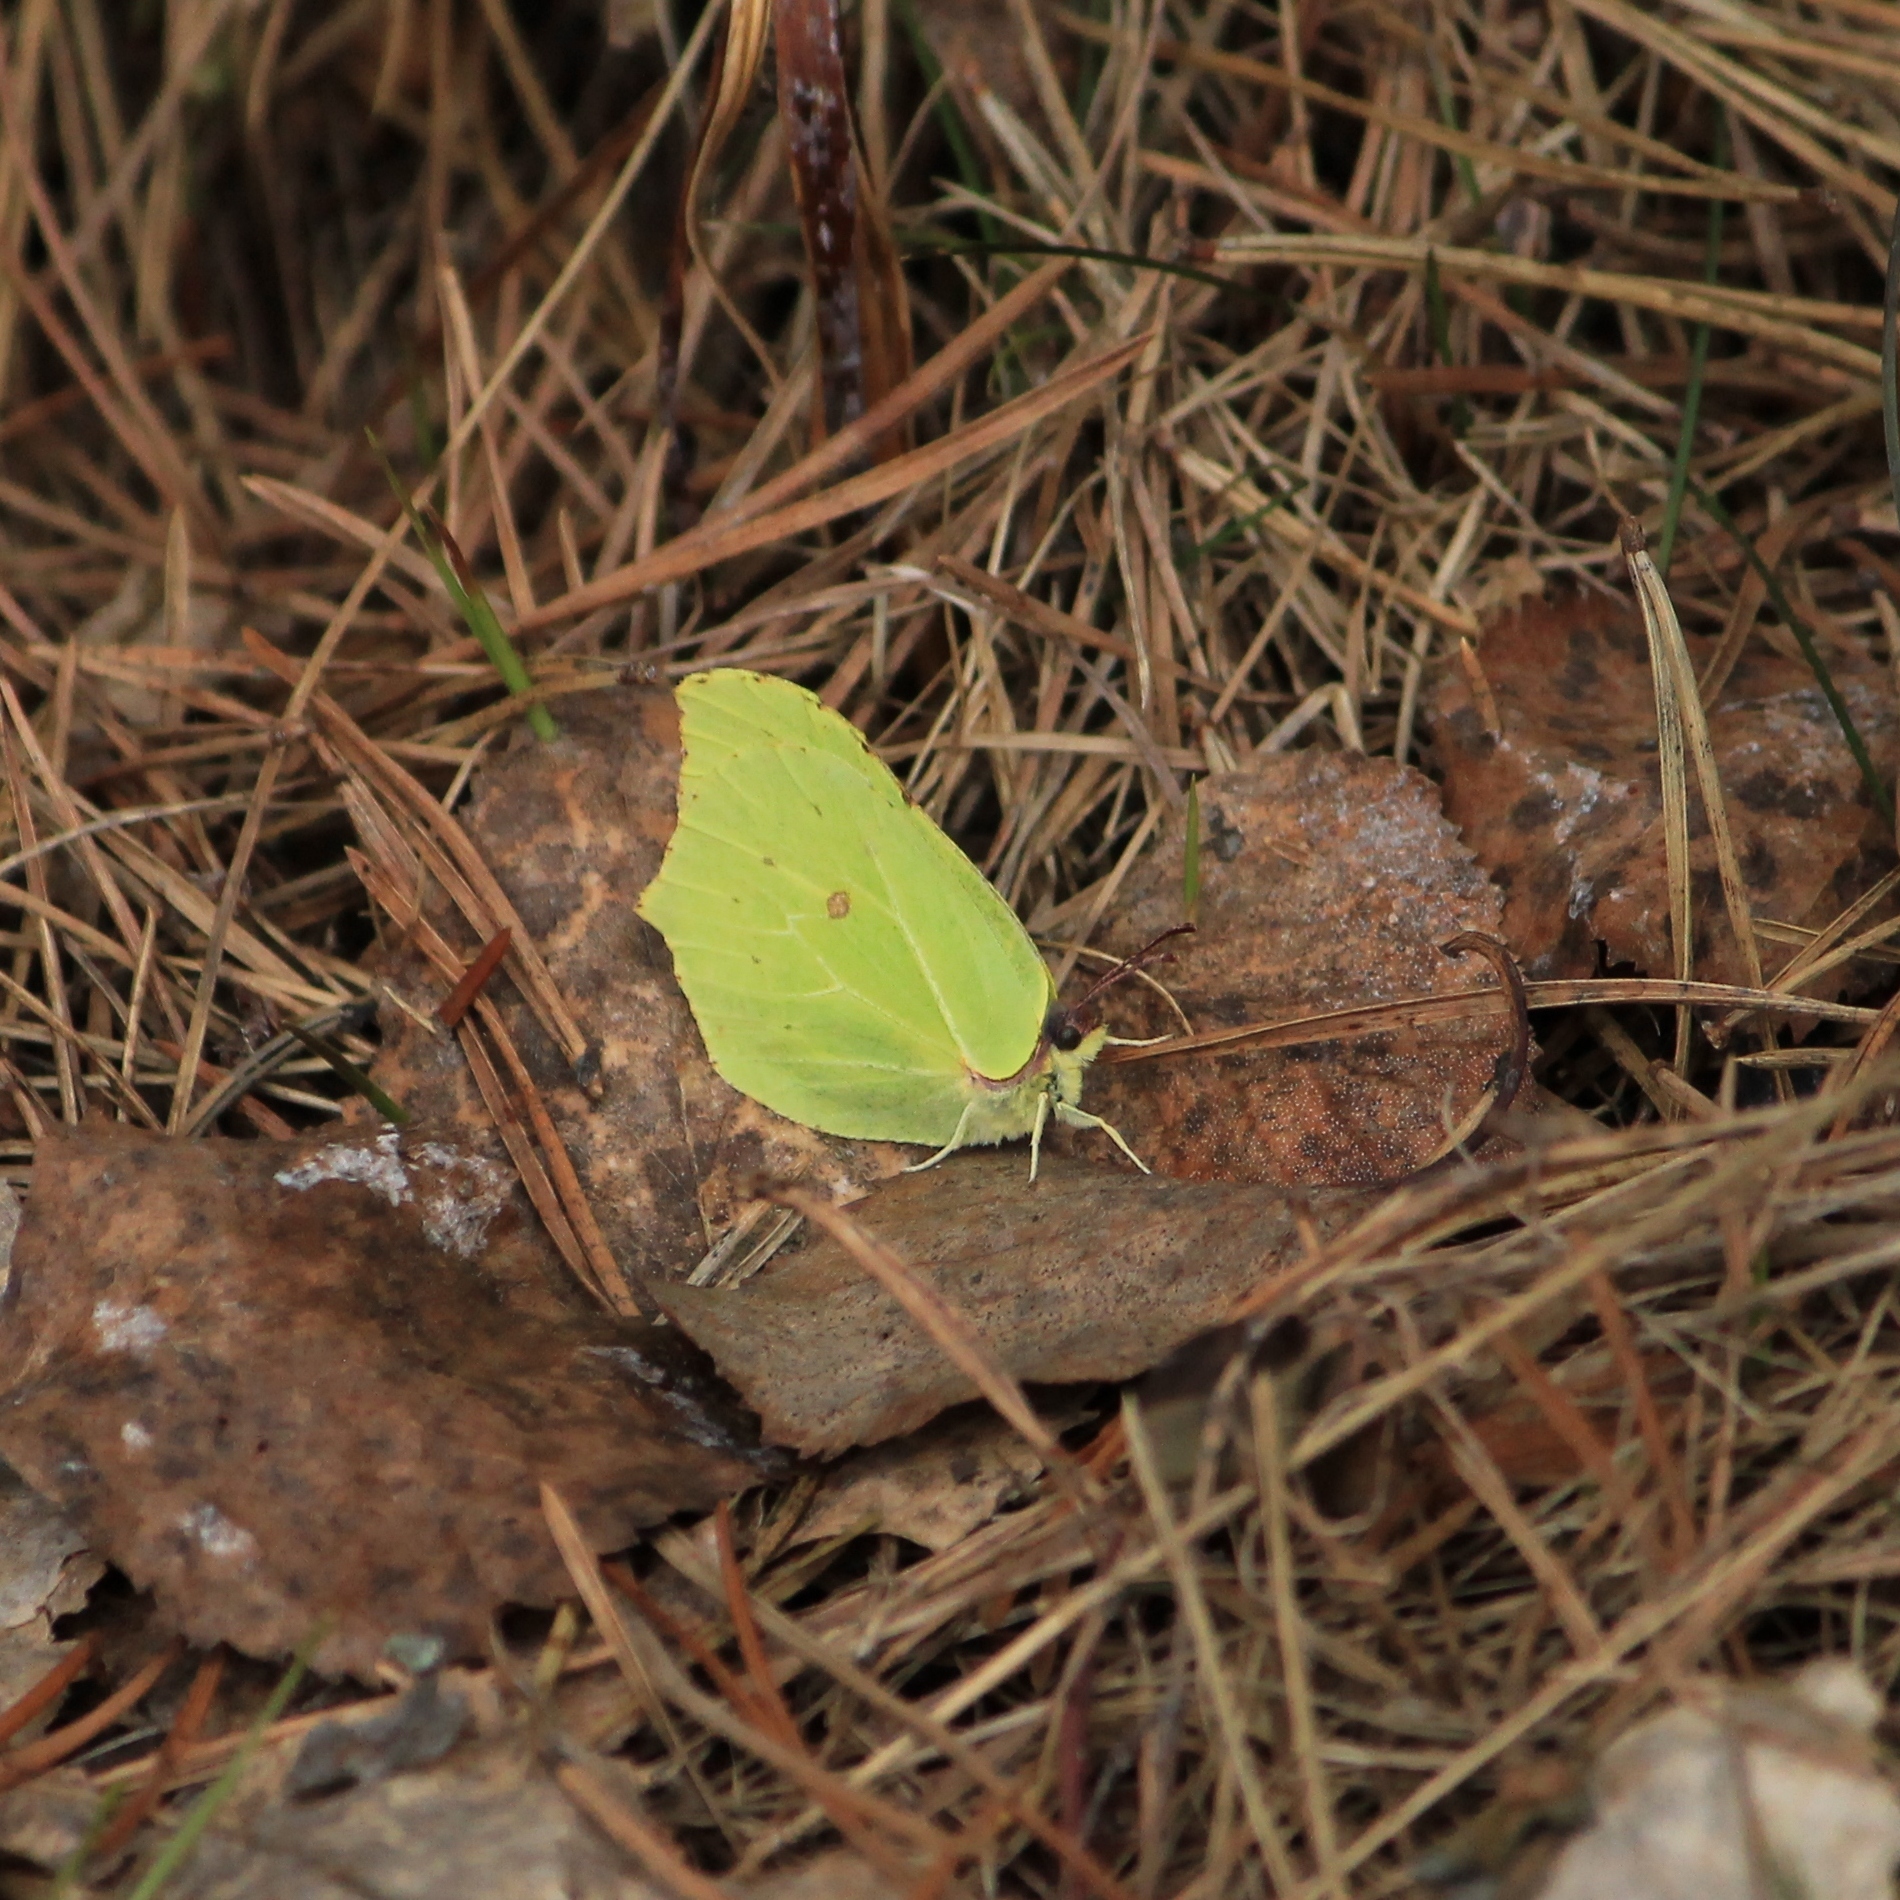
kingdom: Animalia
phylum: Arthropoda
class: Insecta
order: Lepidoptera
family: Pieridae
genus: Gonepteryx
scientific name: Gonepteryx rhamni
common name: Brimstone
